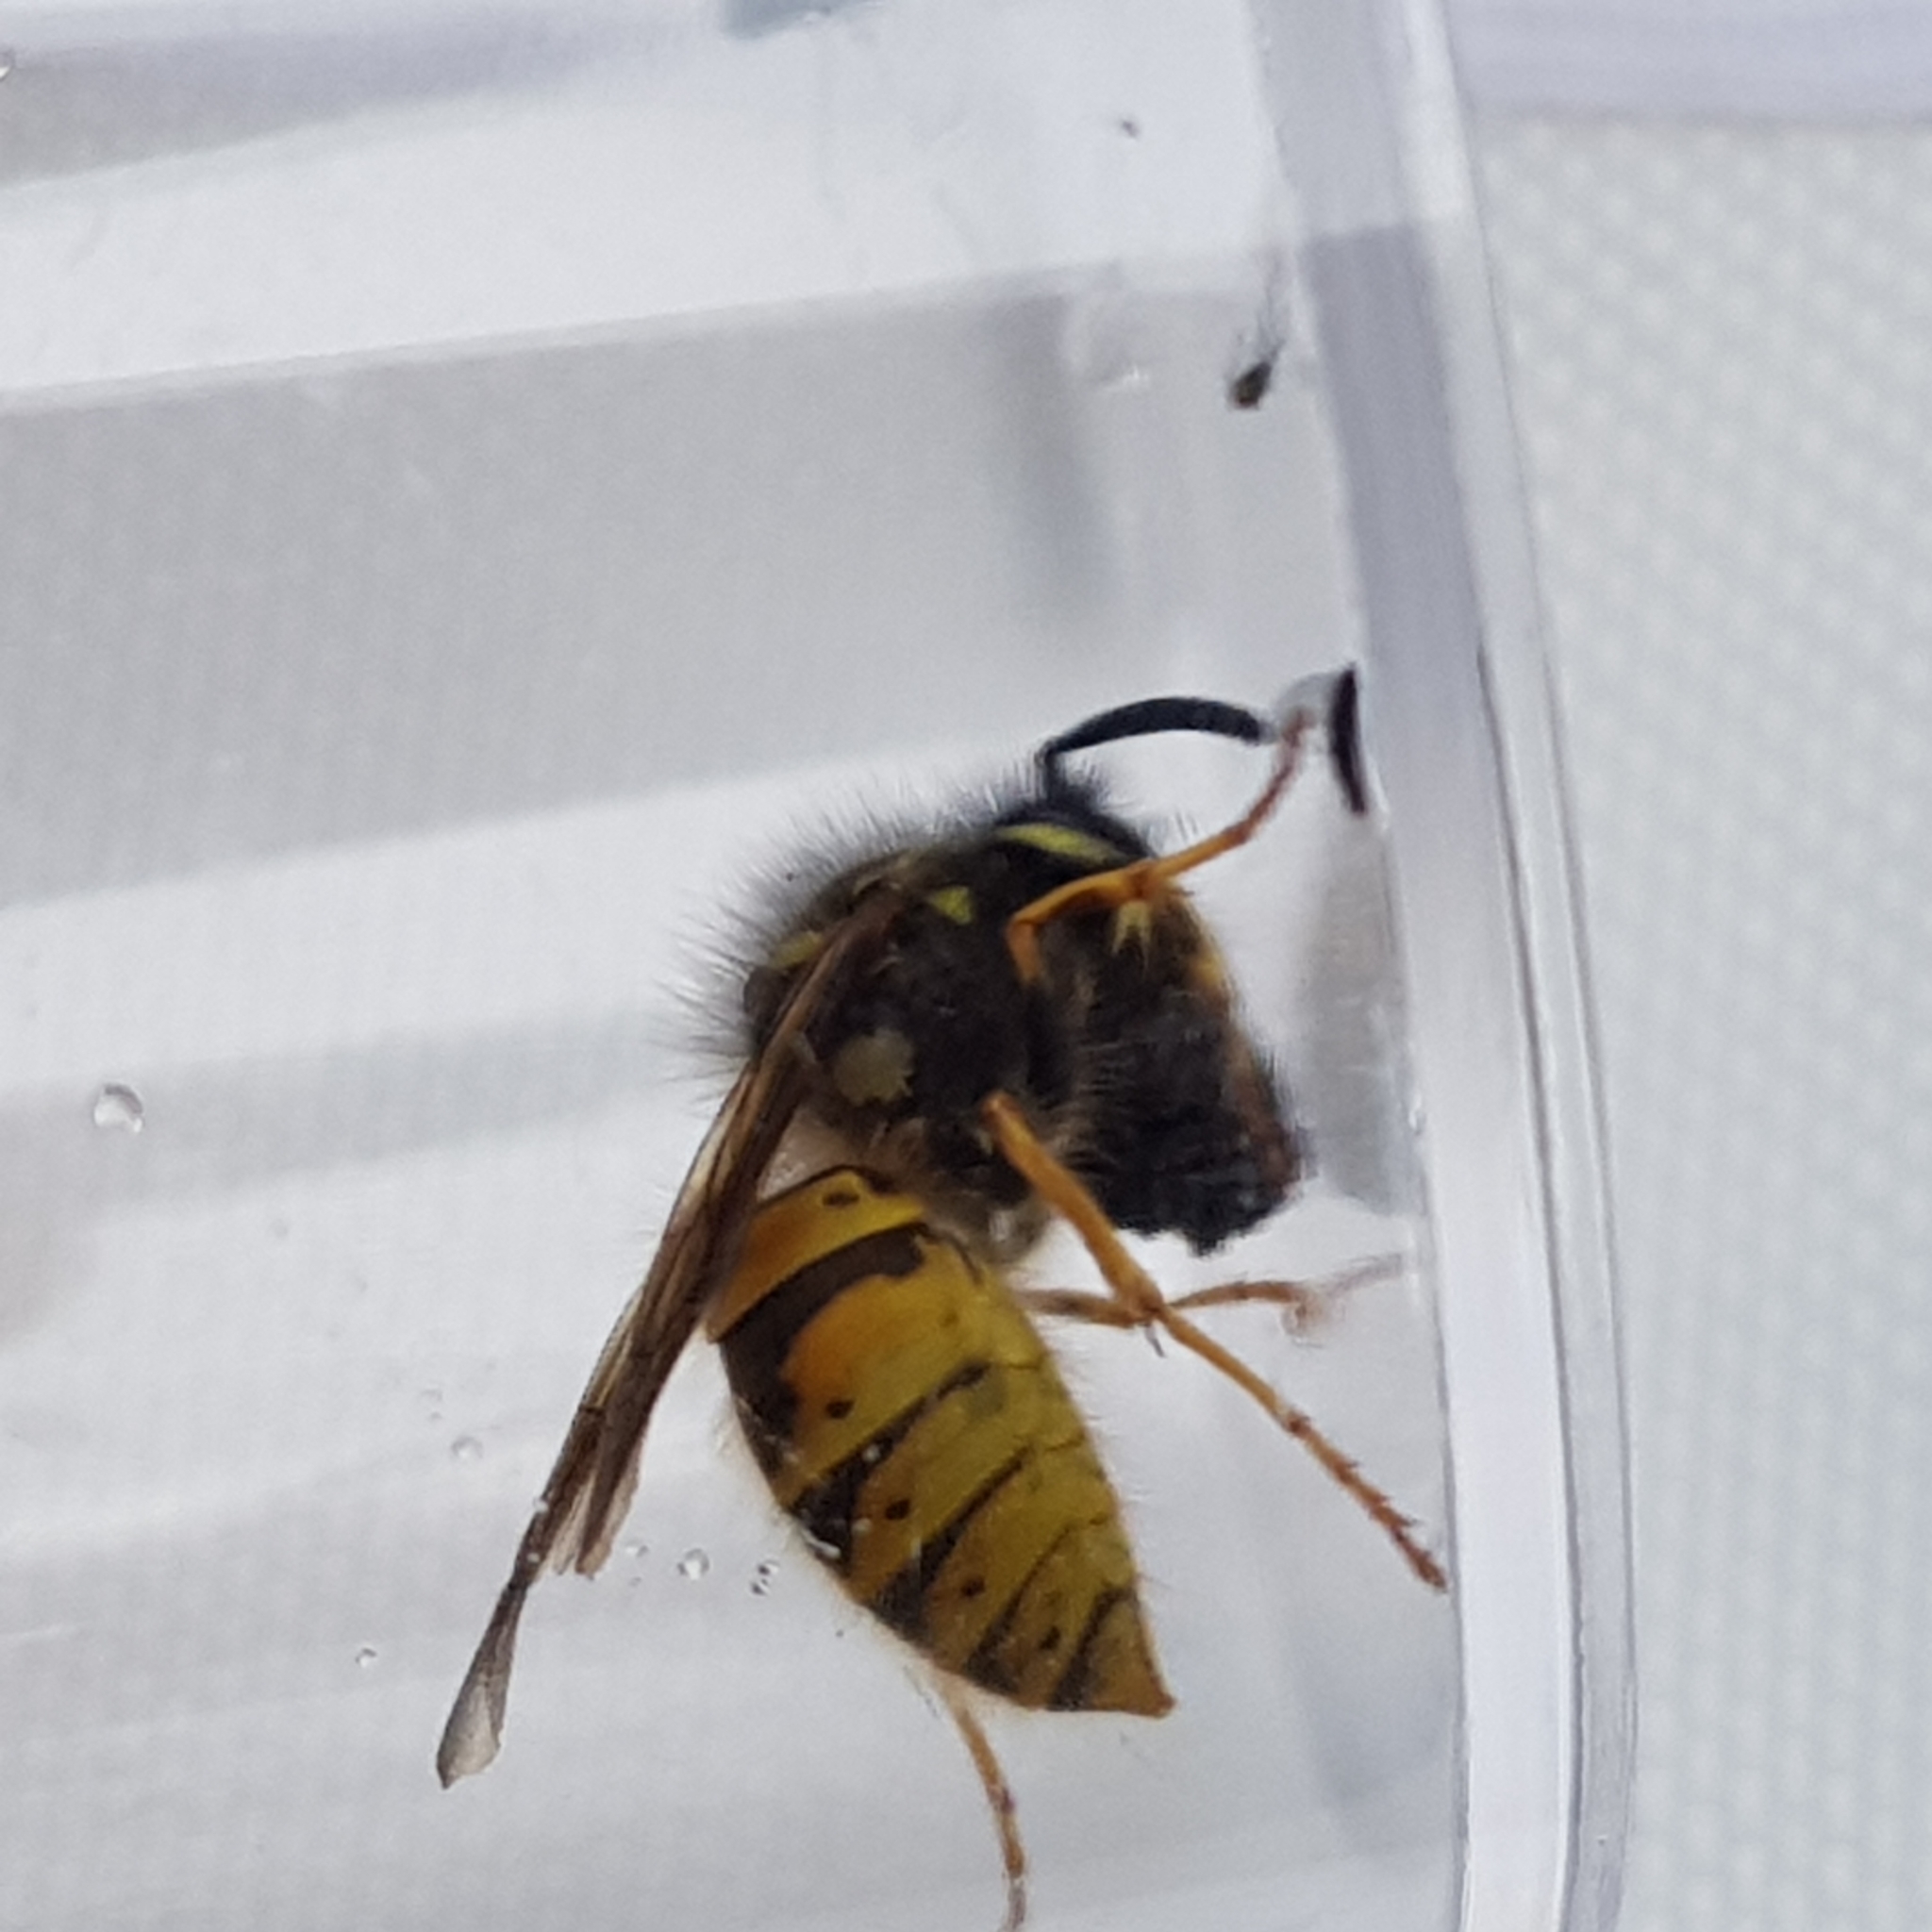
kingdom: Animalia
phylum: Arthropoda
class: Insecta
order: Hymenoptera
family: Vespidae
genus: Vespula
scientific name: Vespula vulgaris
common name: Common wasp
